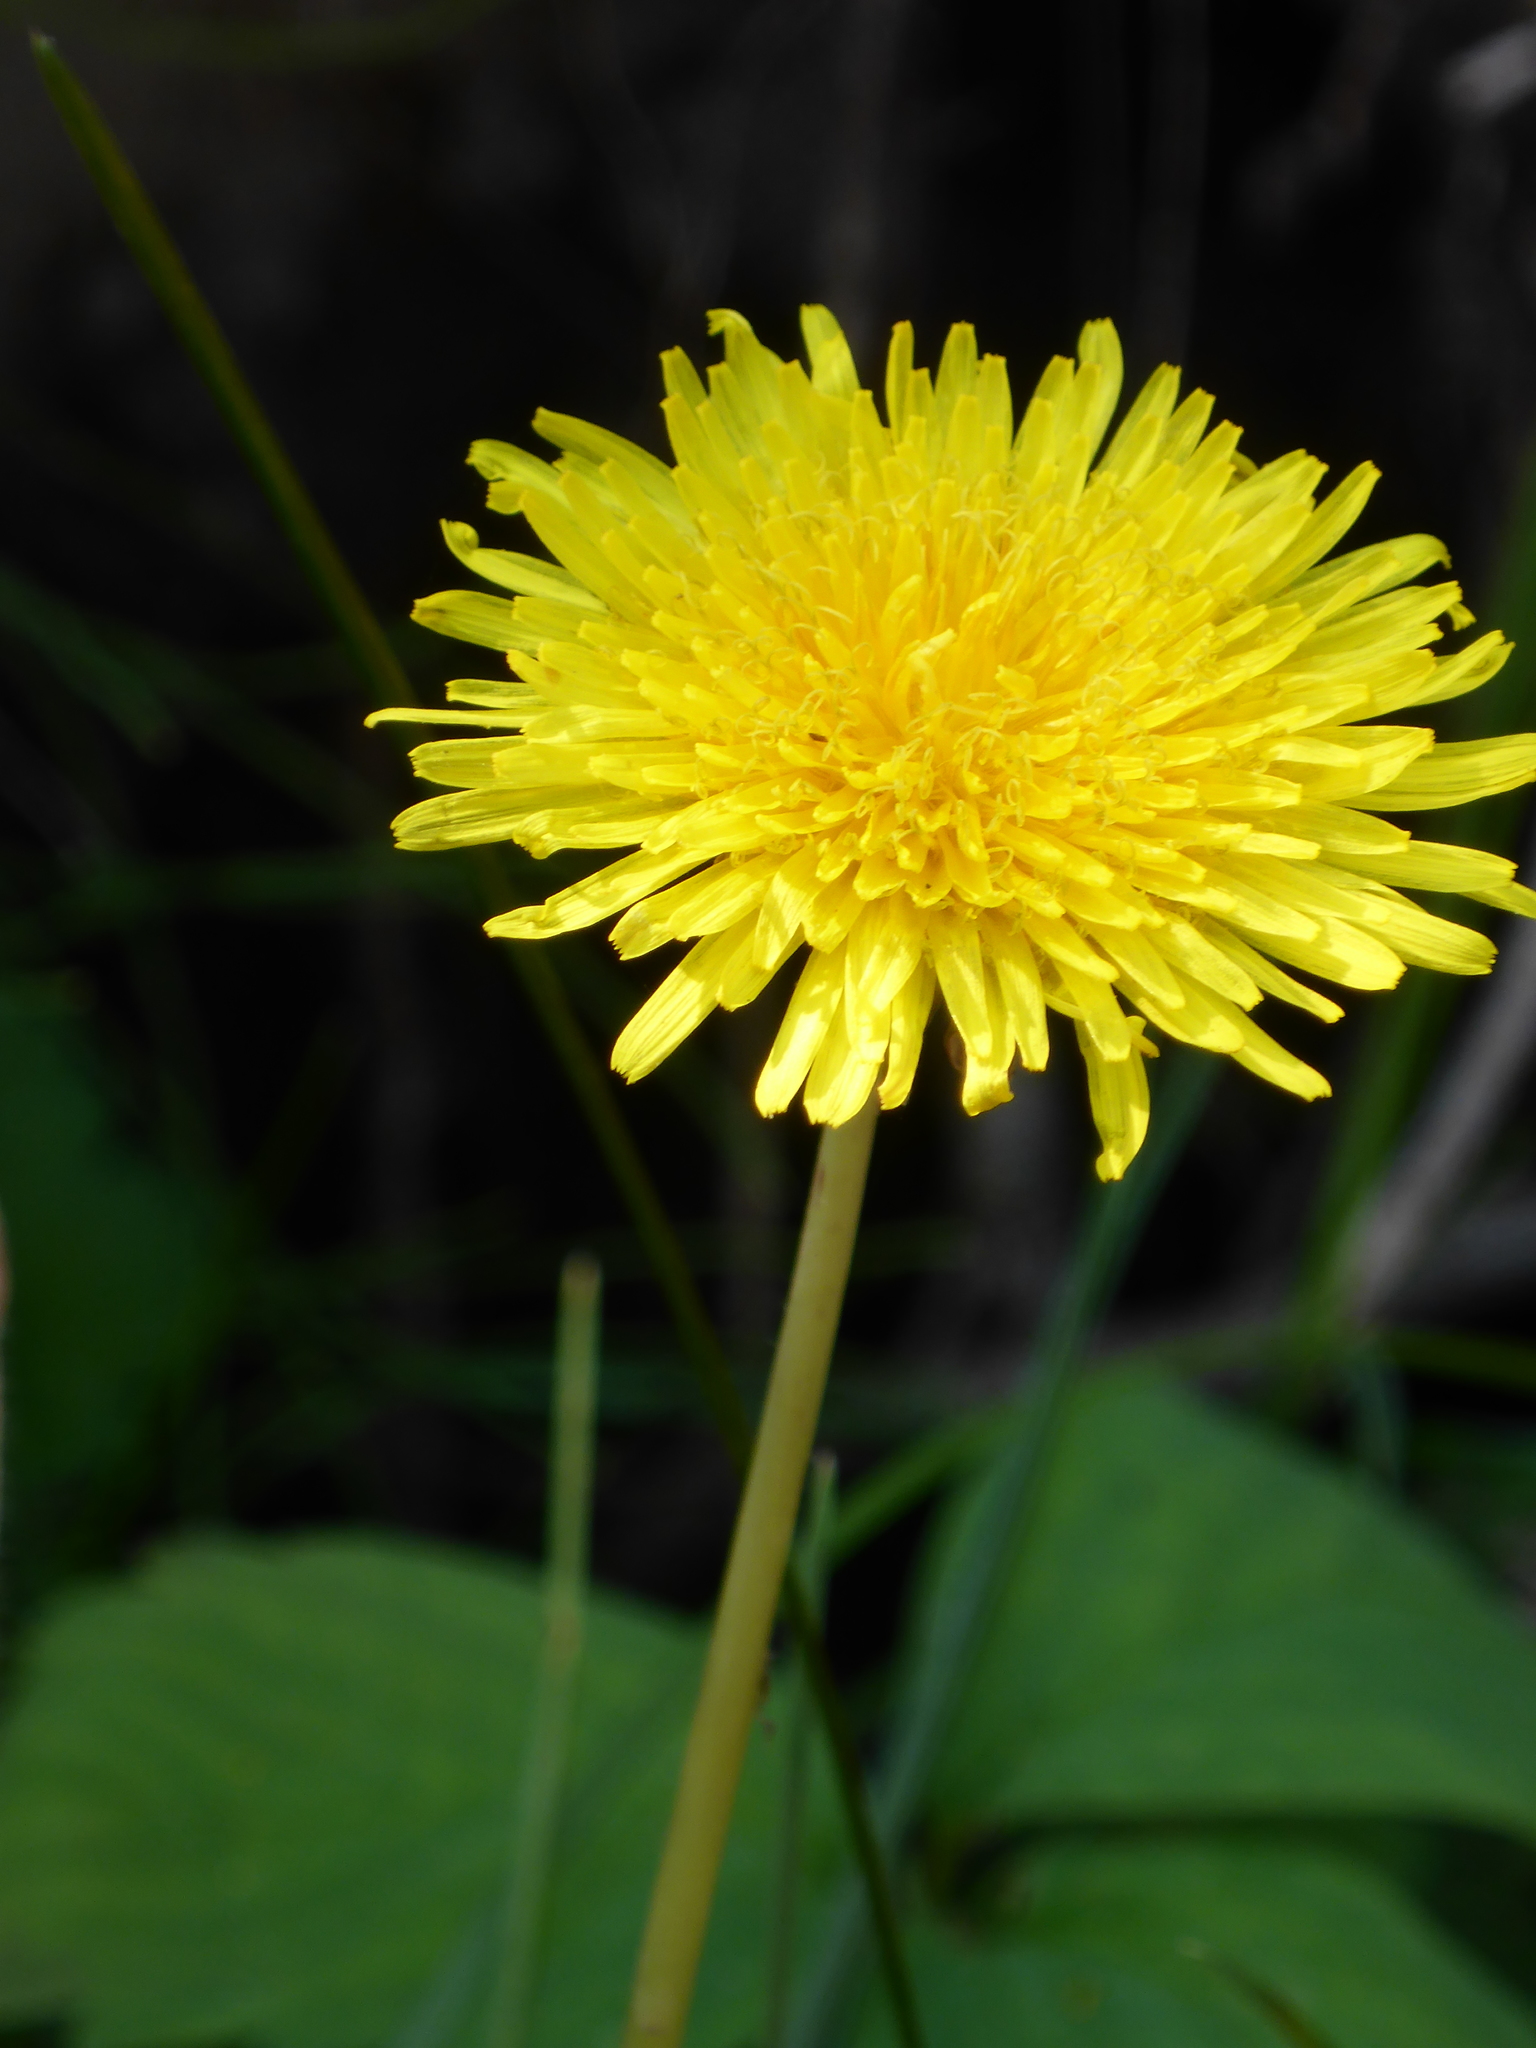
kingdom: Plantae
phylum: Tracheophyta
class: Magnoliopsida
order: Asterales
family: Asteraceae
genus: Taraxacum
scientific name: Taraxacum officinale
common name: Common dandelion
